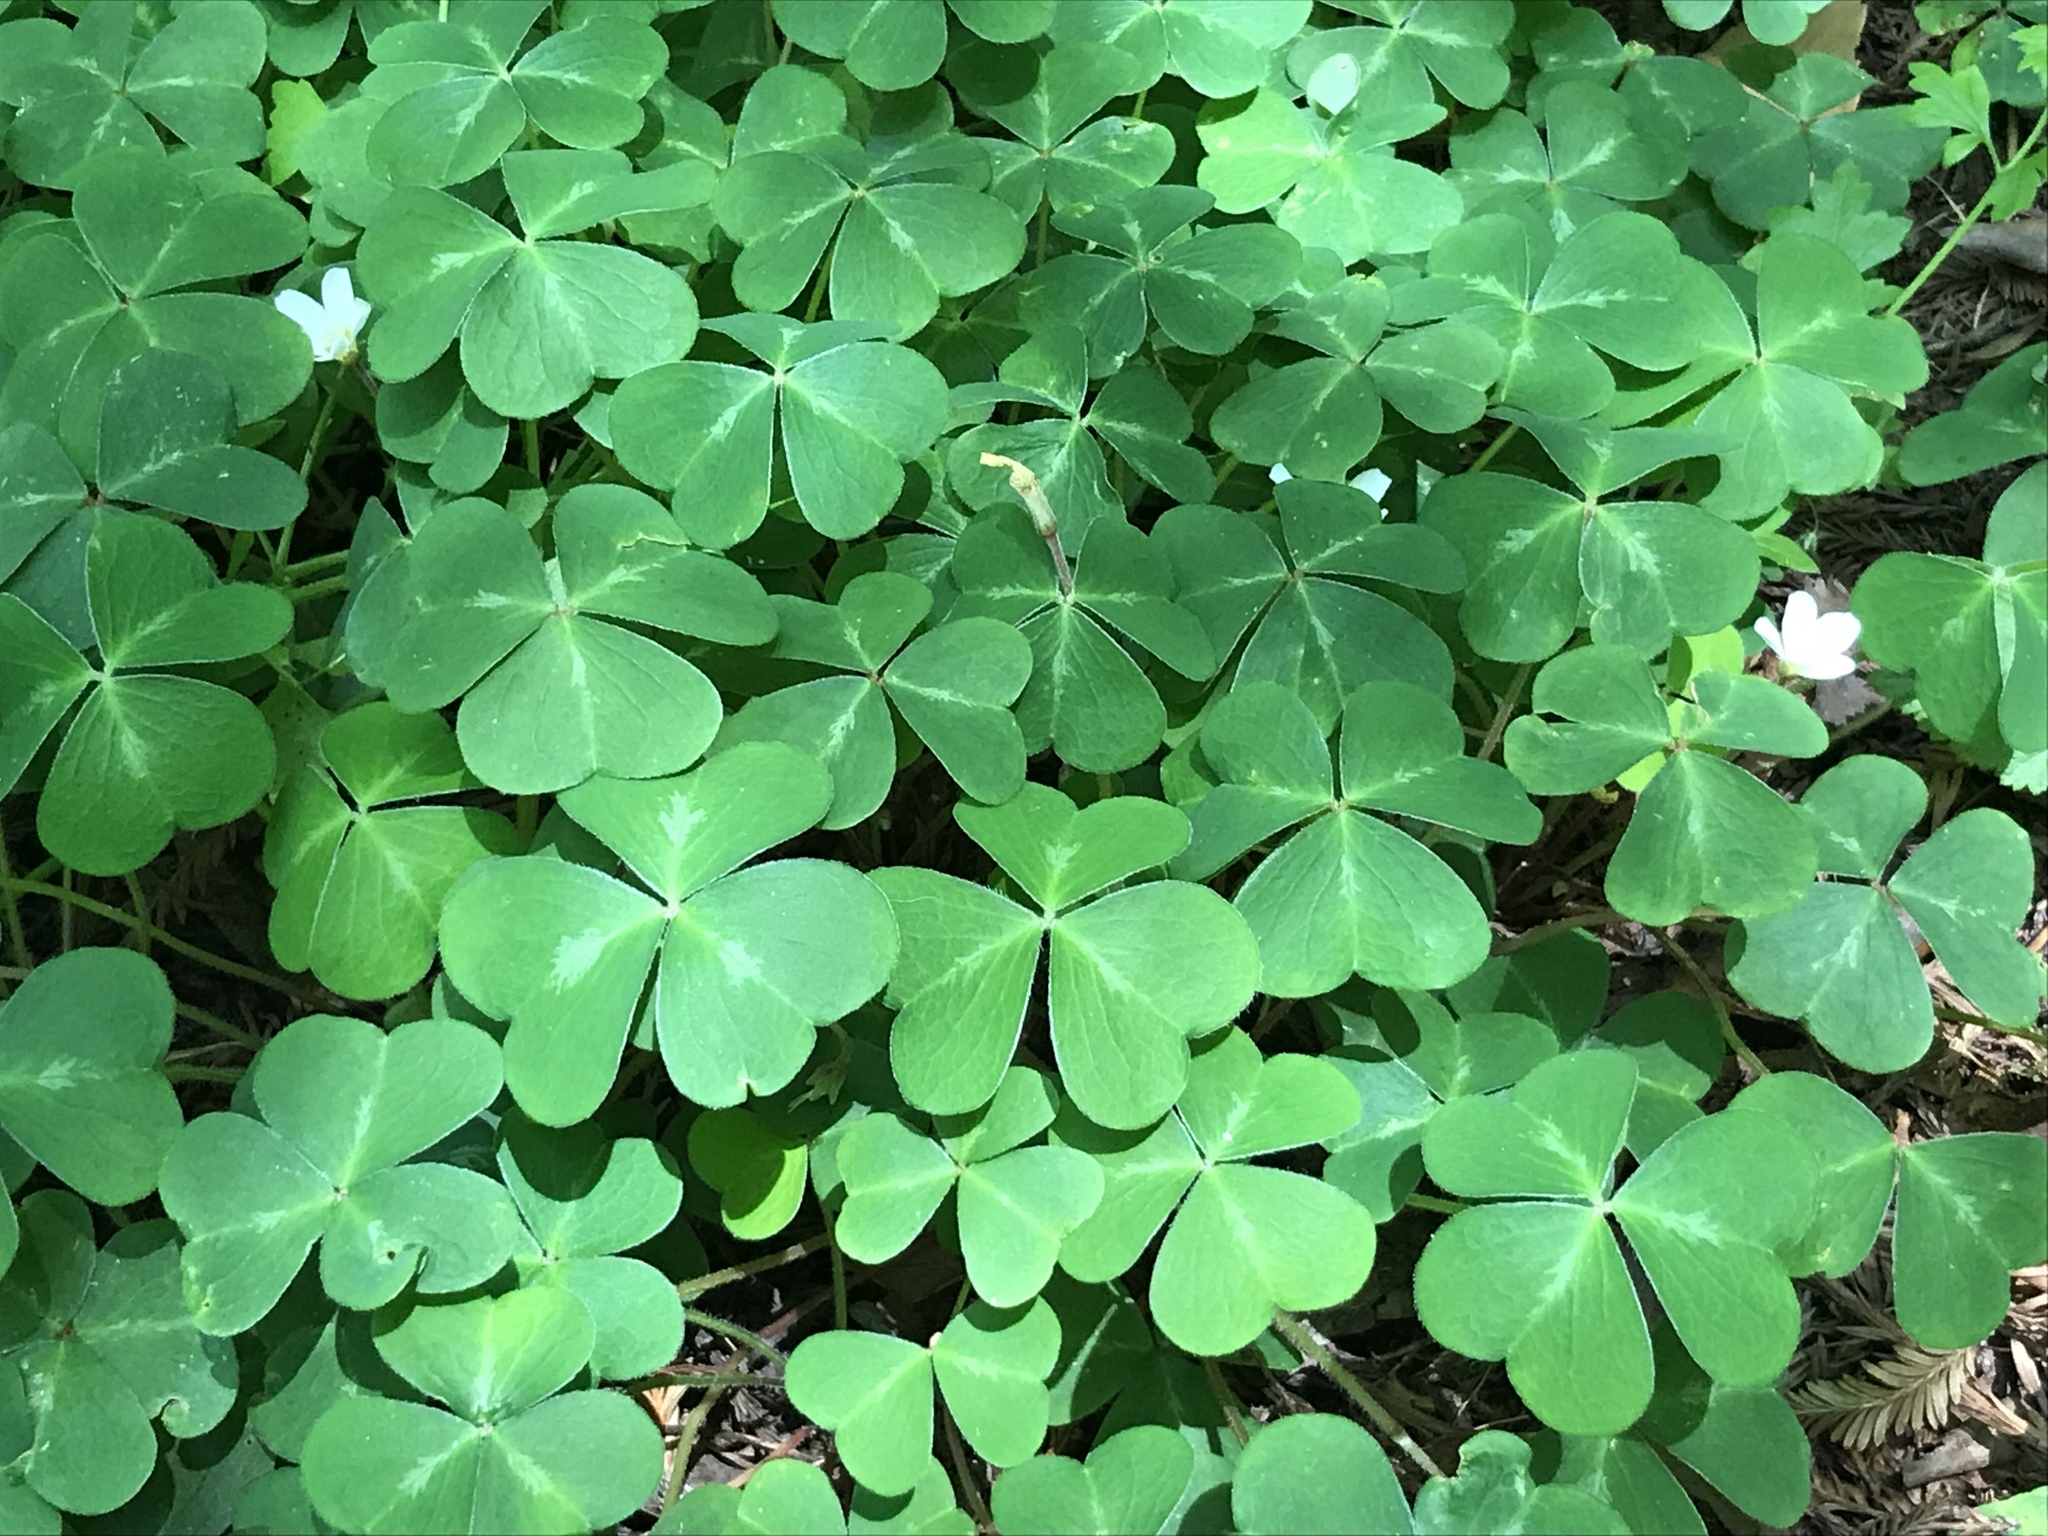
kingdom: Plantae
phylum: Tracheophyta
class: Magnoliopsida
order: Oxalidales
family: Oxalidaceae
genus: Oxalis
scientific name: Oxalis oregana
